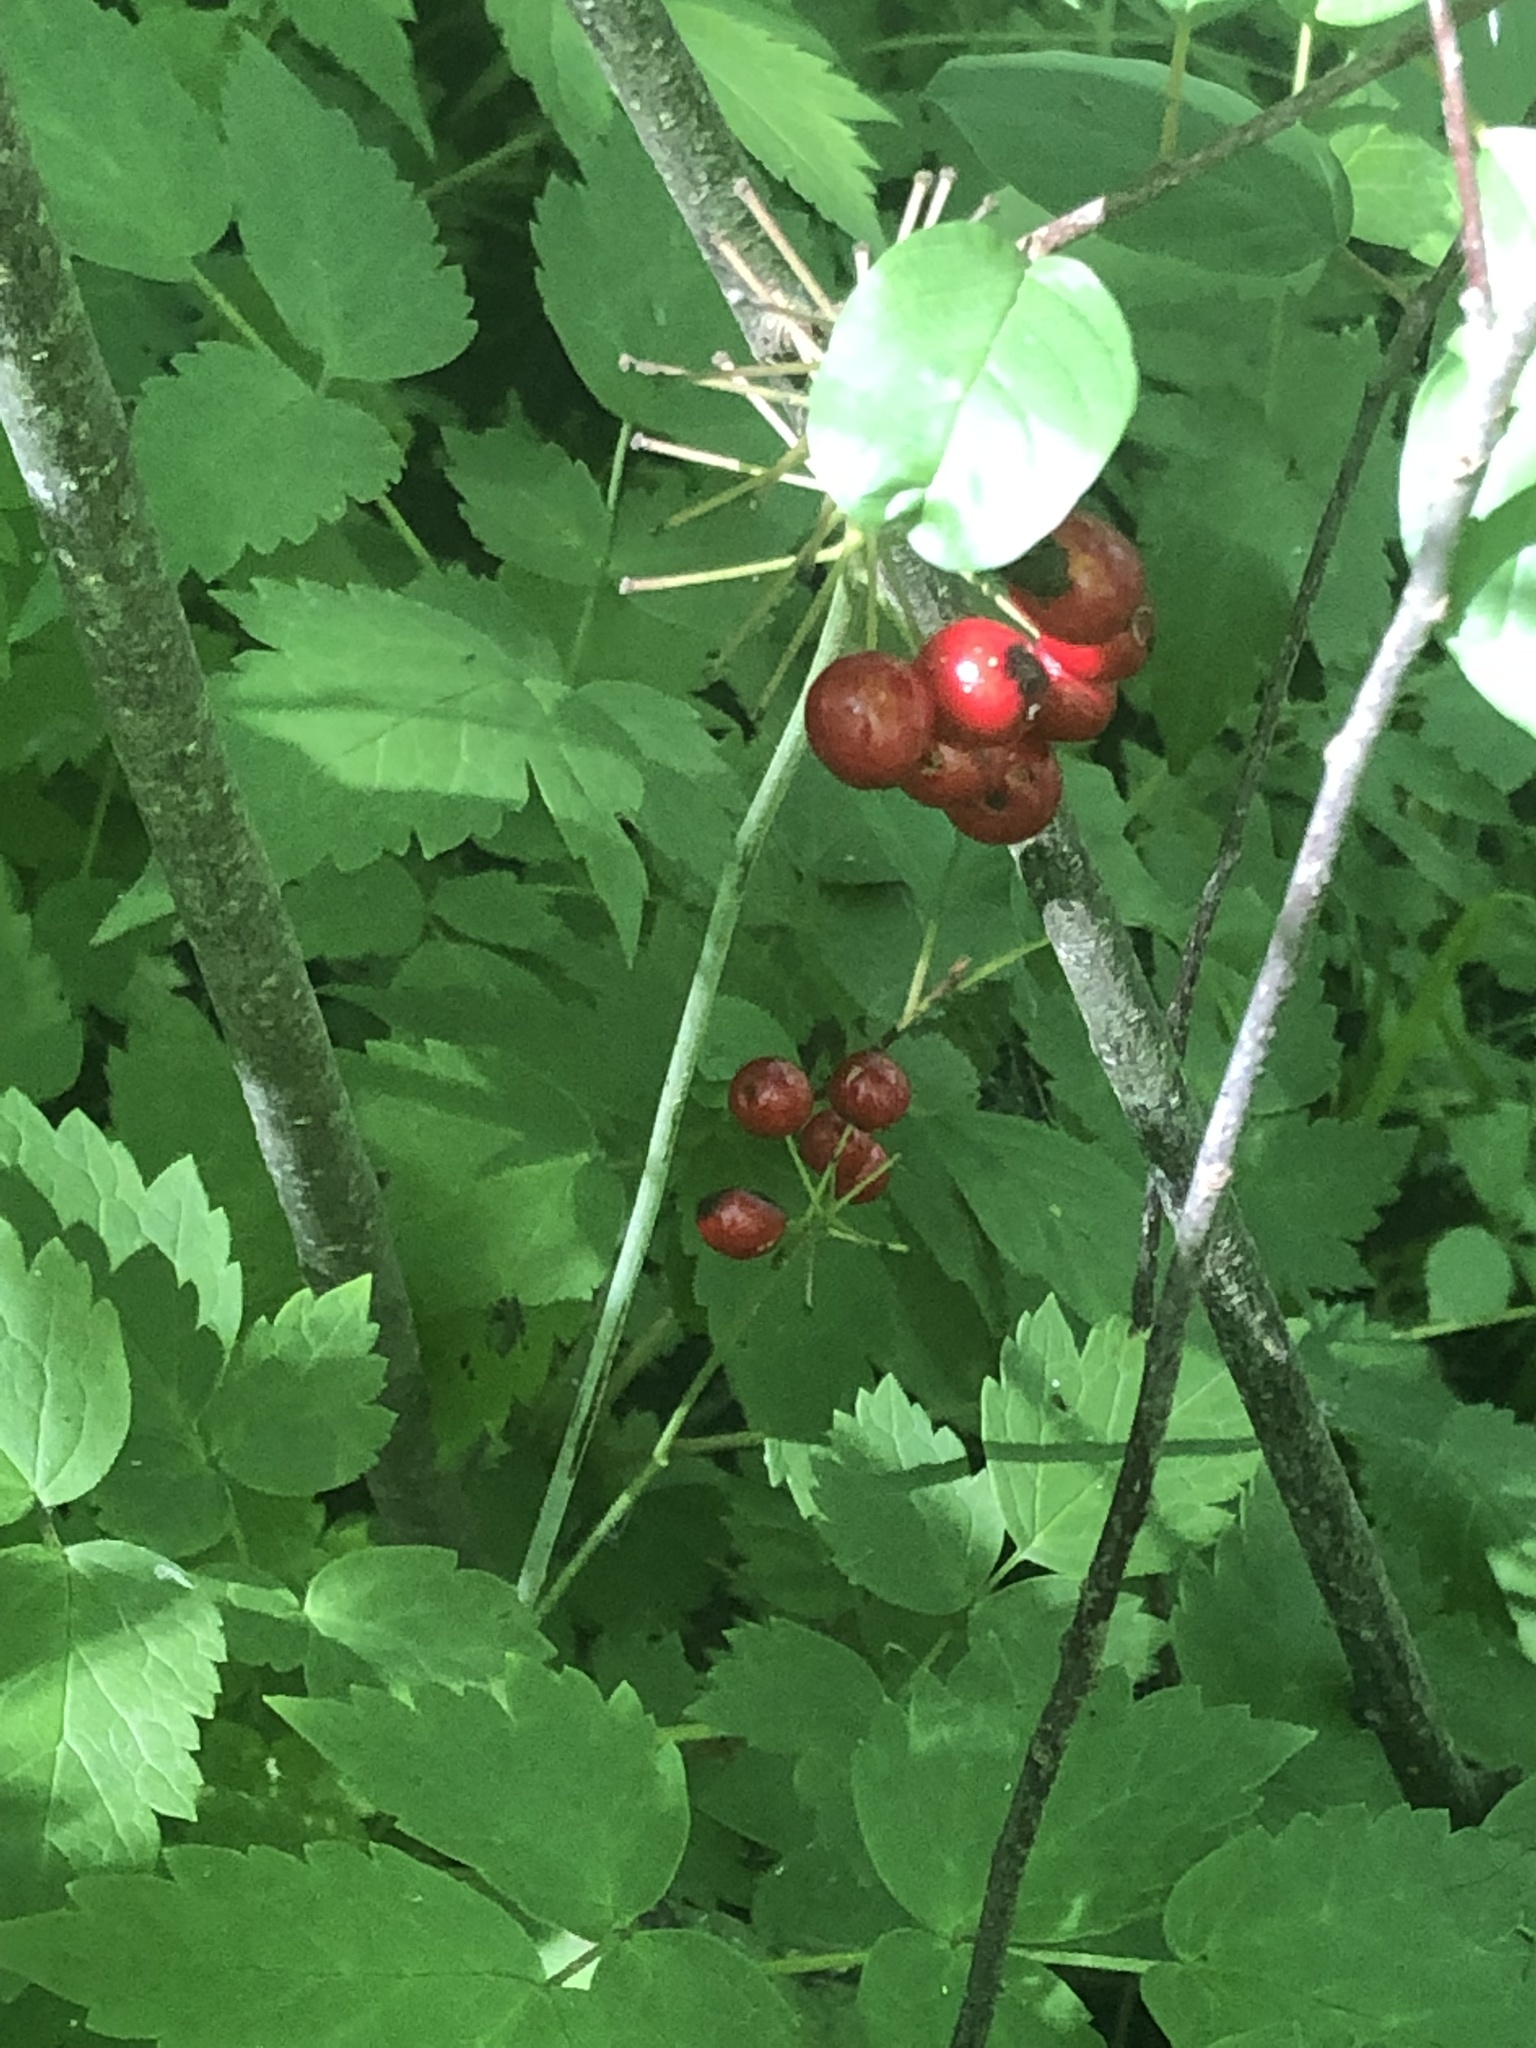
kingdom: Plantae
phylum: Tracheophyta
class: Magnoliopsida
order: Ranunculales
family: Ranunculaceae
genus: Actaea
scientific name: Actaea rubra
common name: Red baneberry
